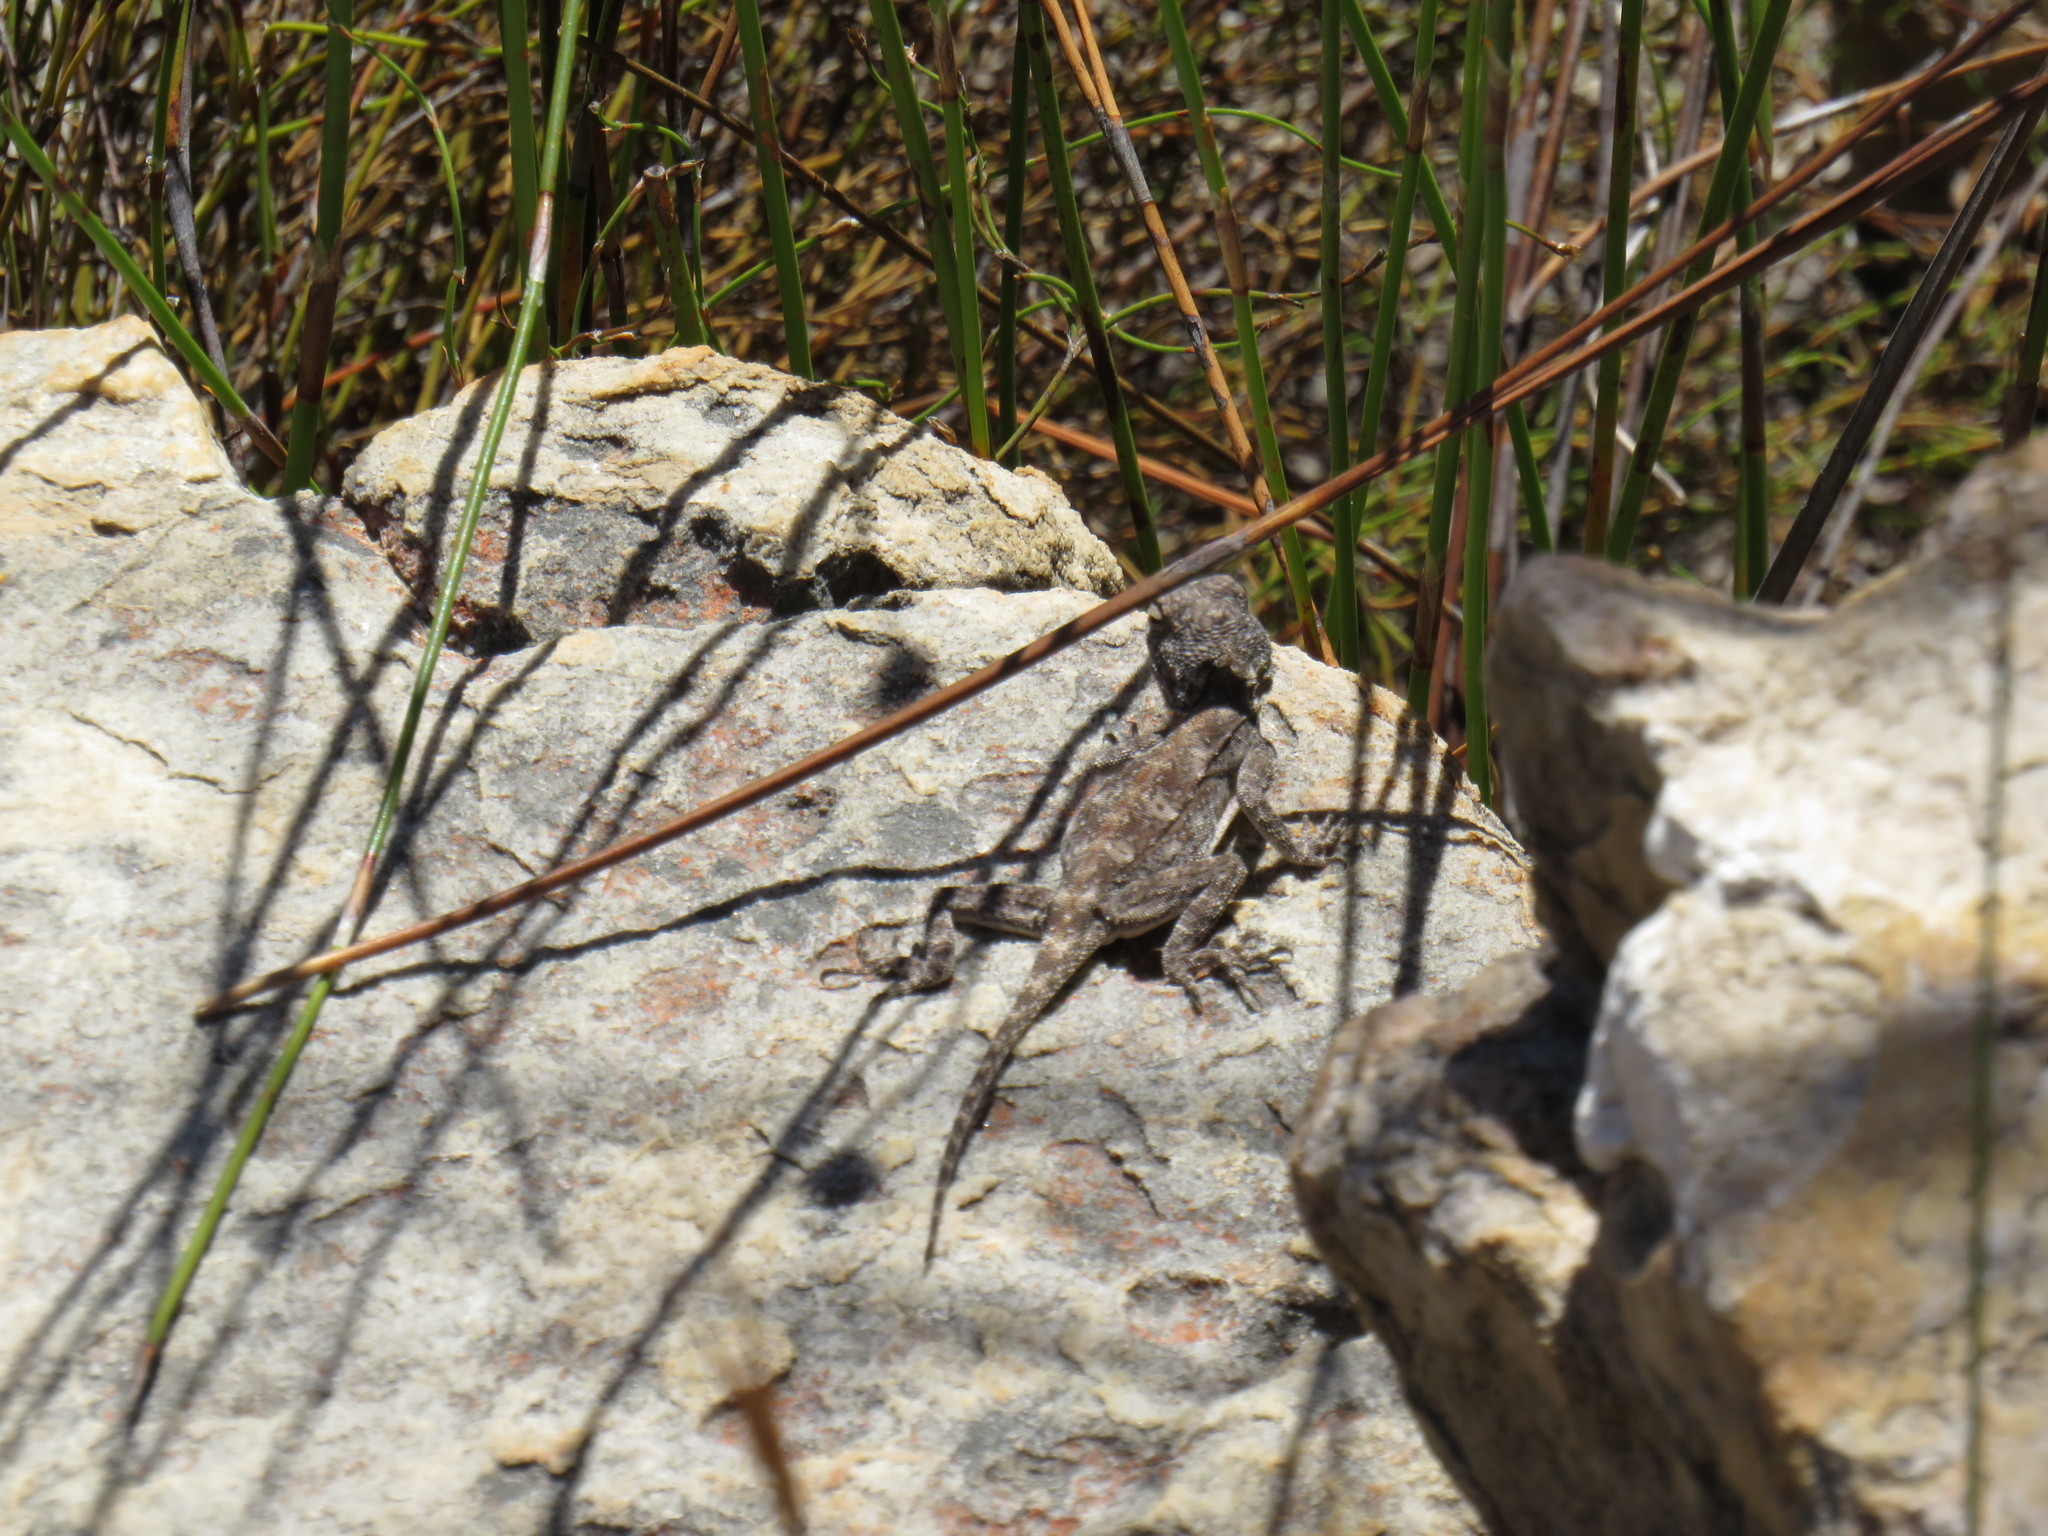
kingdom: Animalia
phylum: Chordata
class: Squamata
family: Agamidae
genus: Agama
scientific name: Agama atra
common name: Southern african rock agama
